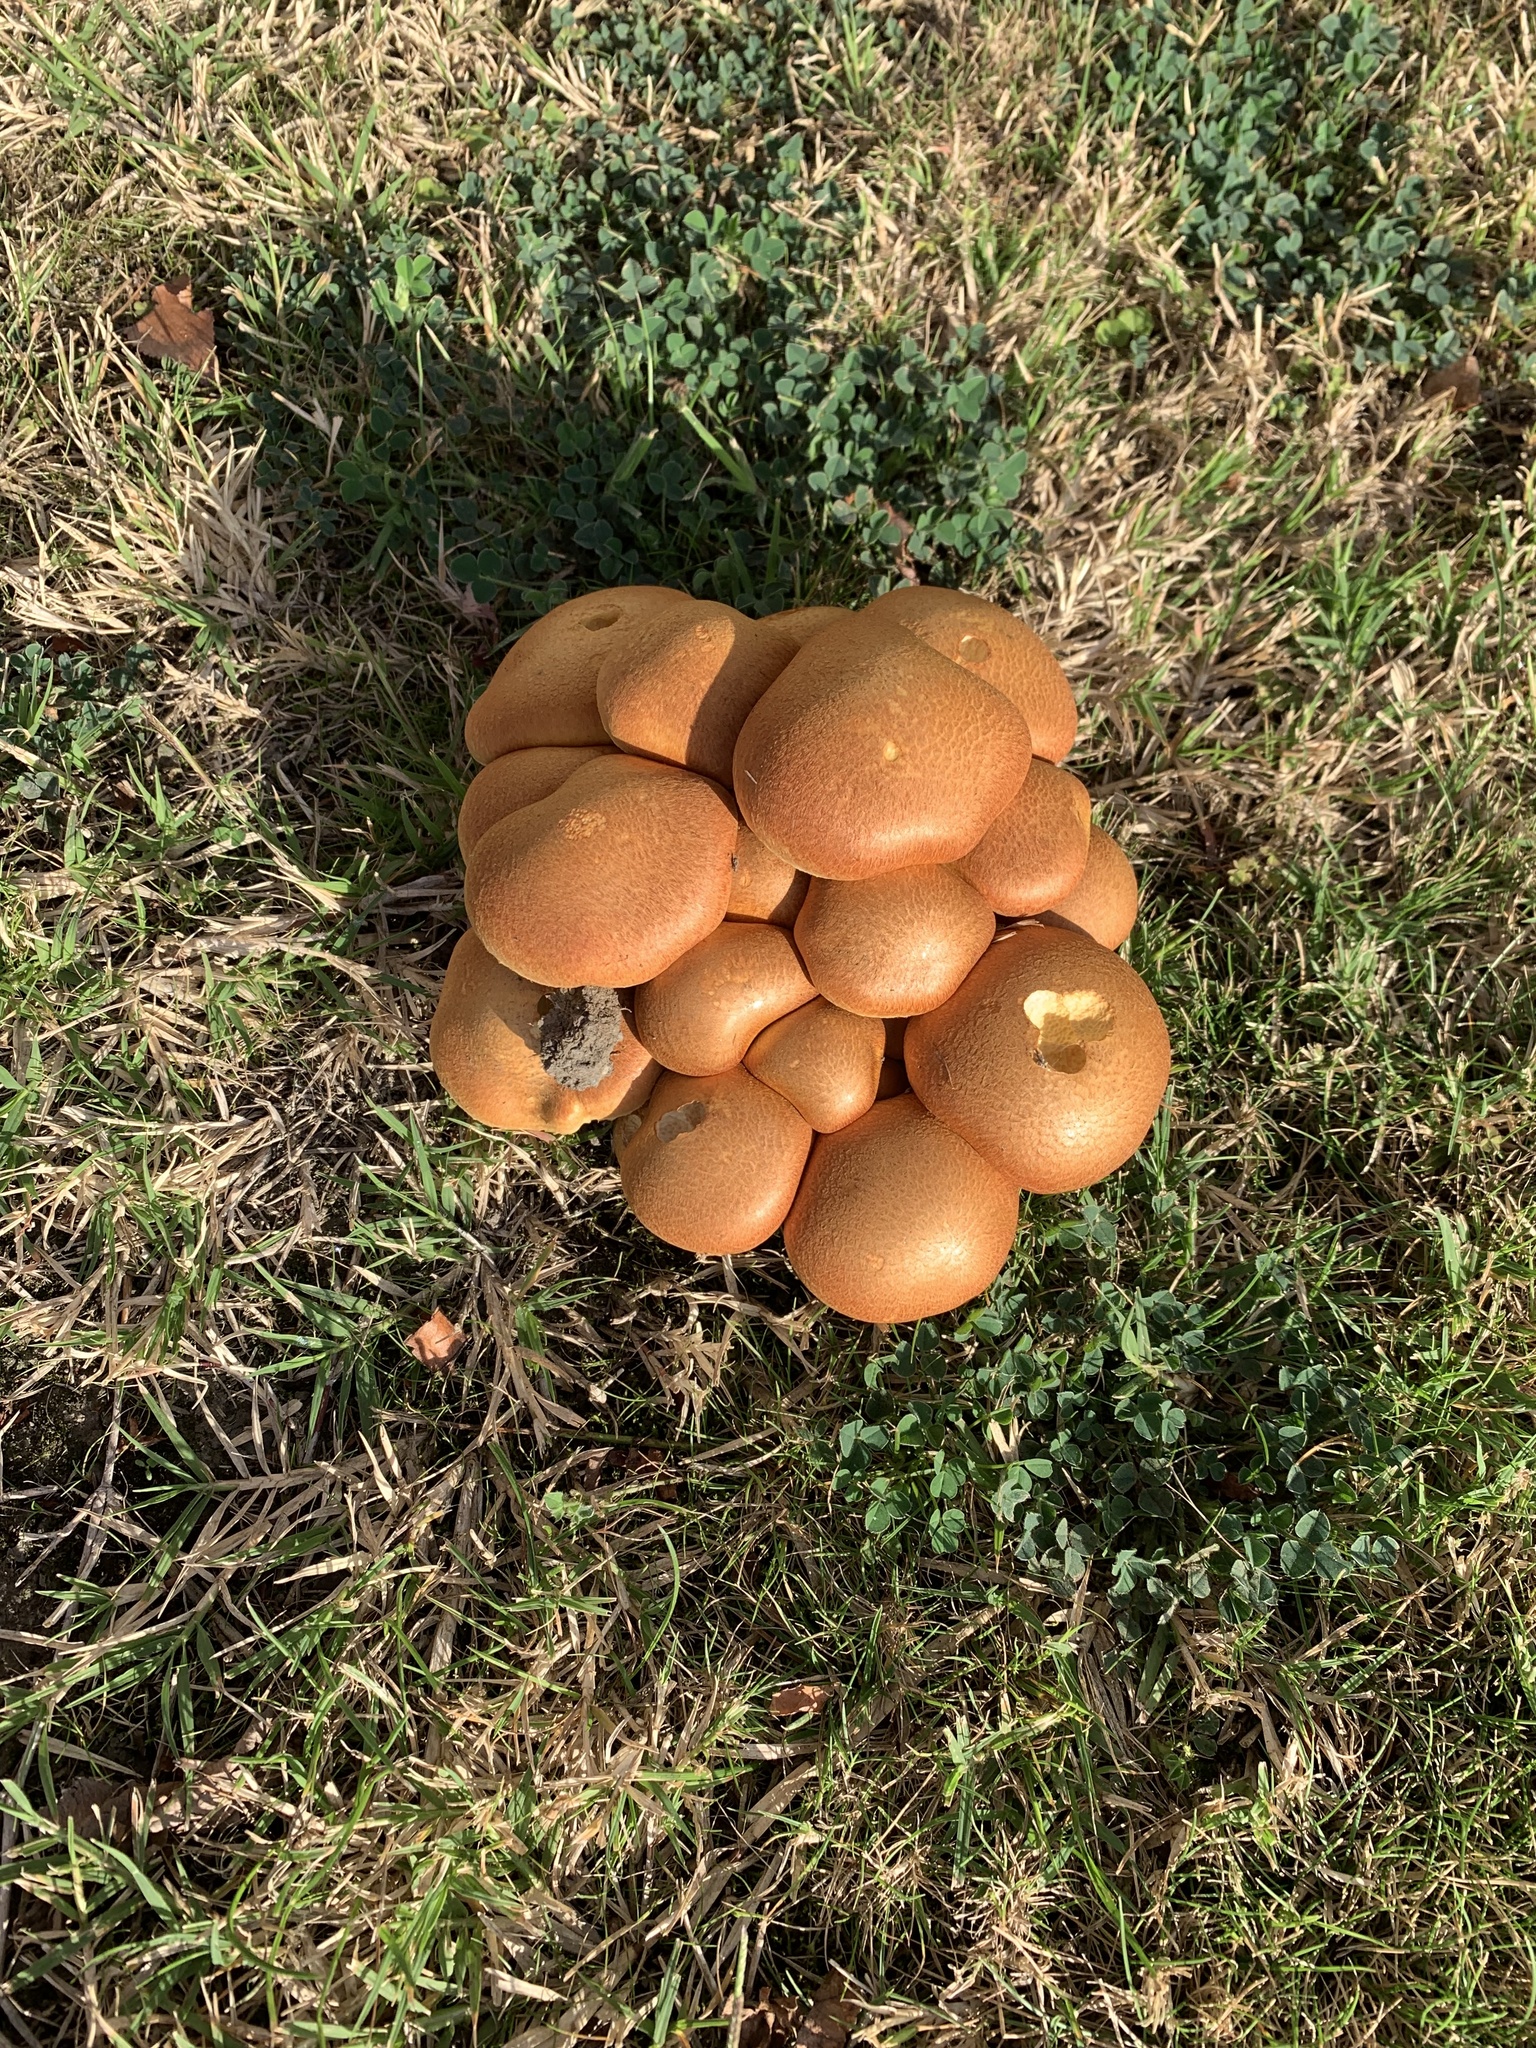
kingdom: Fungi
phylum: Basidiomycota
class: Agaricomycetes
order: Agaricales
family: Hymenogastraceae
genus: Gymnopilus
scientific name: Gymnopilus junonius
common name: Spectacular rustgill
